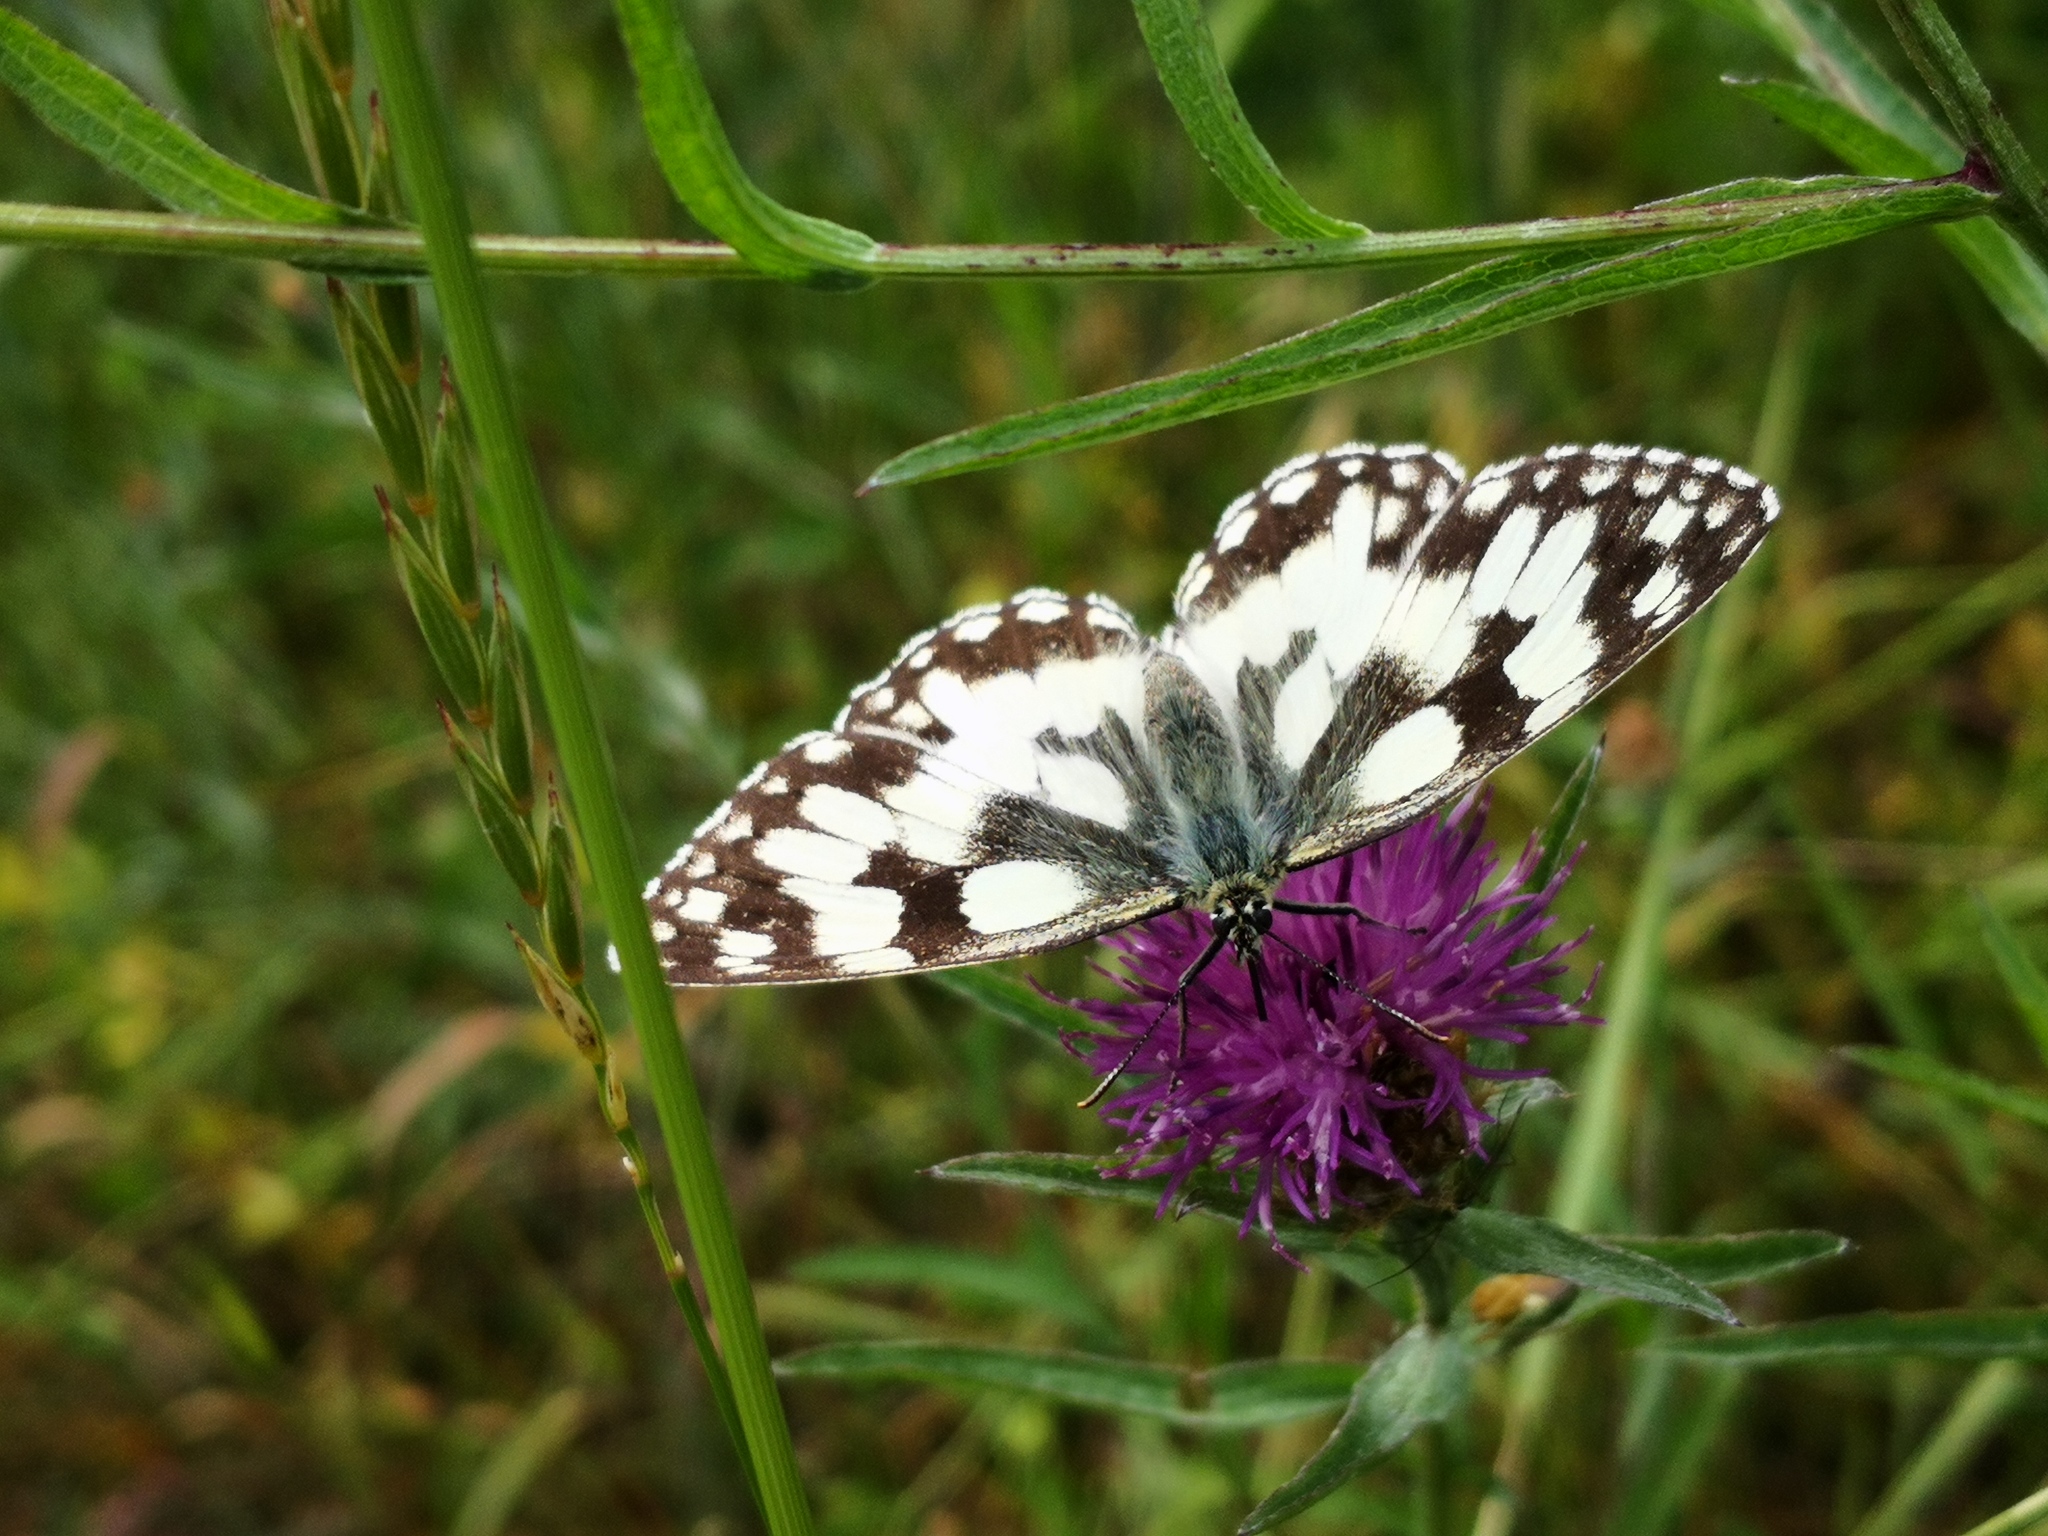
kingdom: Animalia
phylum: Arthropoda
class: Insecta
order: Lepidoptera
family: Nymphalidae
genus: Melanargia
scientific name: Melanargia galathea
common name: Marbled white
